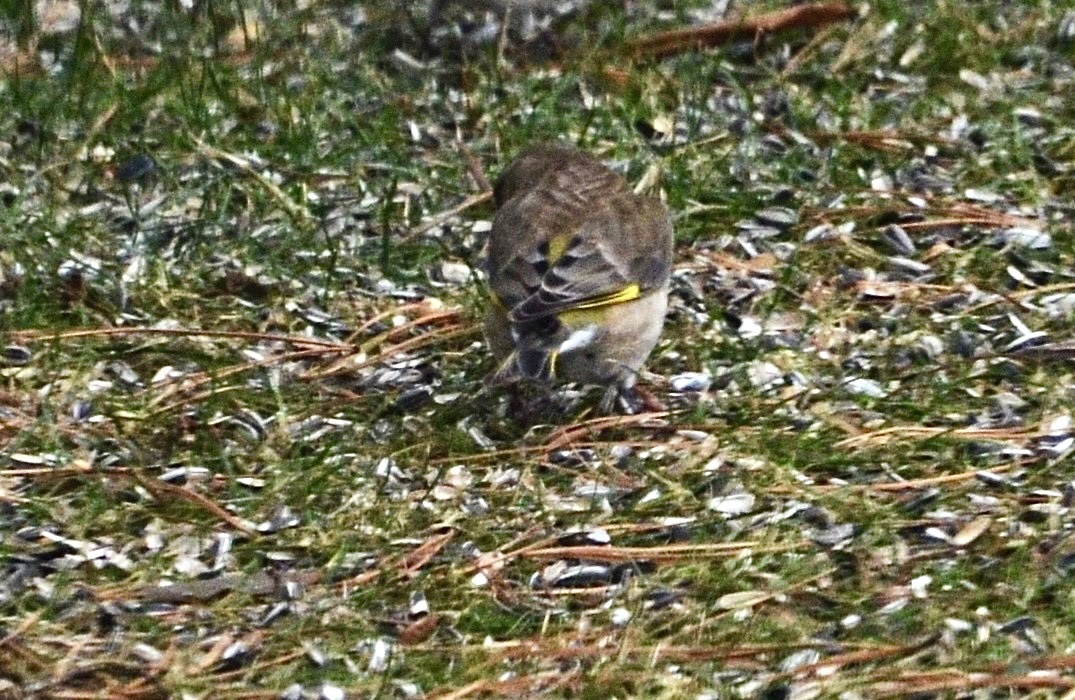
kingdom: Plantae
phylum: Tracheophyta
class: Liliopsida
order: Poales
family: Poaceae
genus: Chloris
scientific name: Chloris chloris
